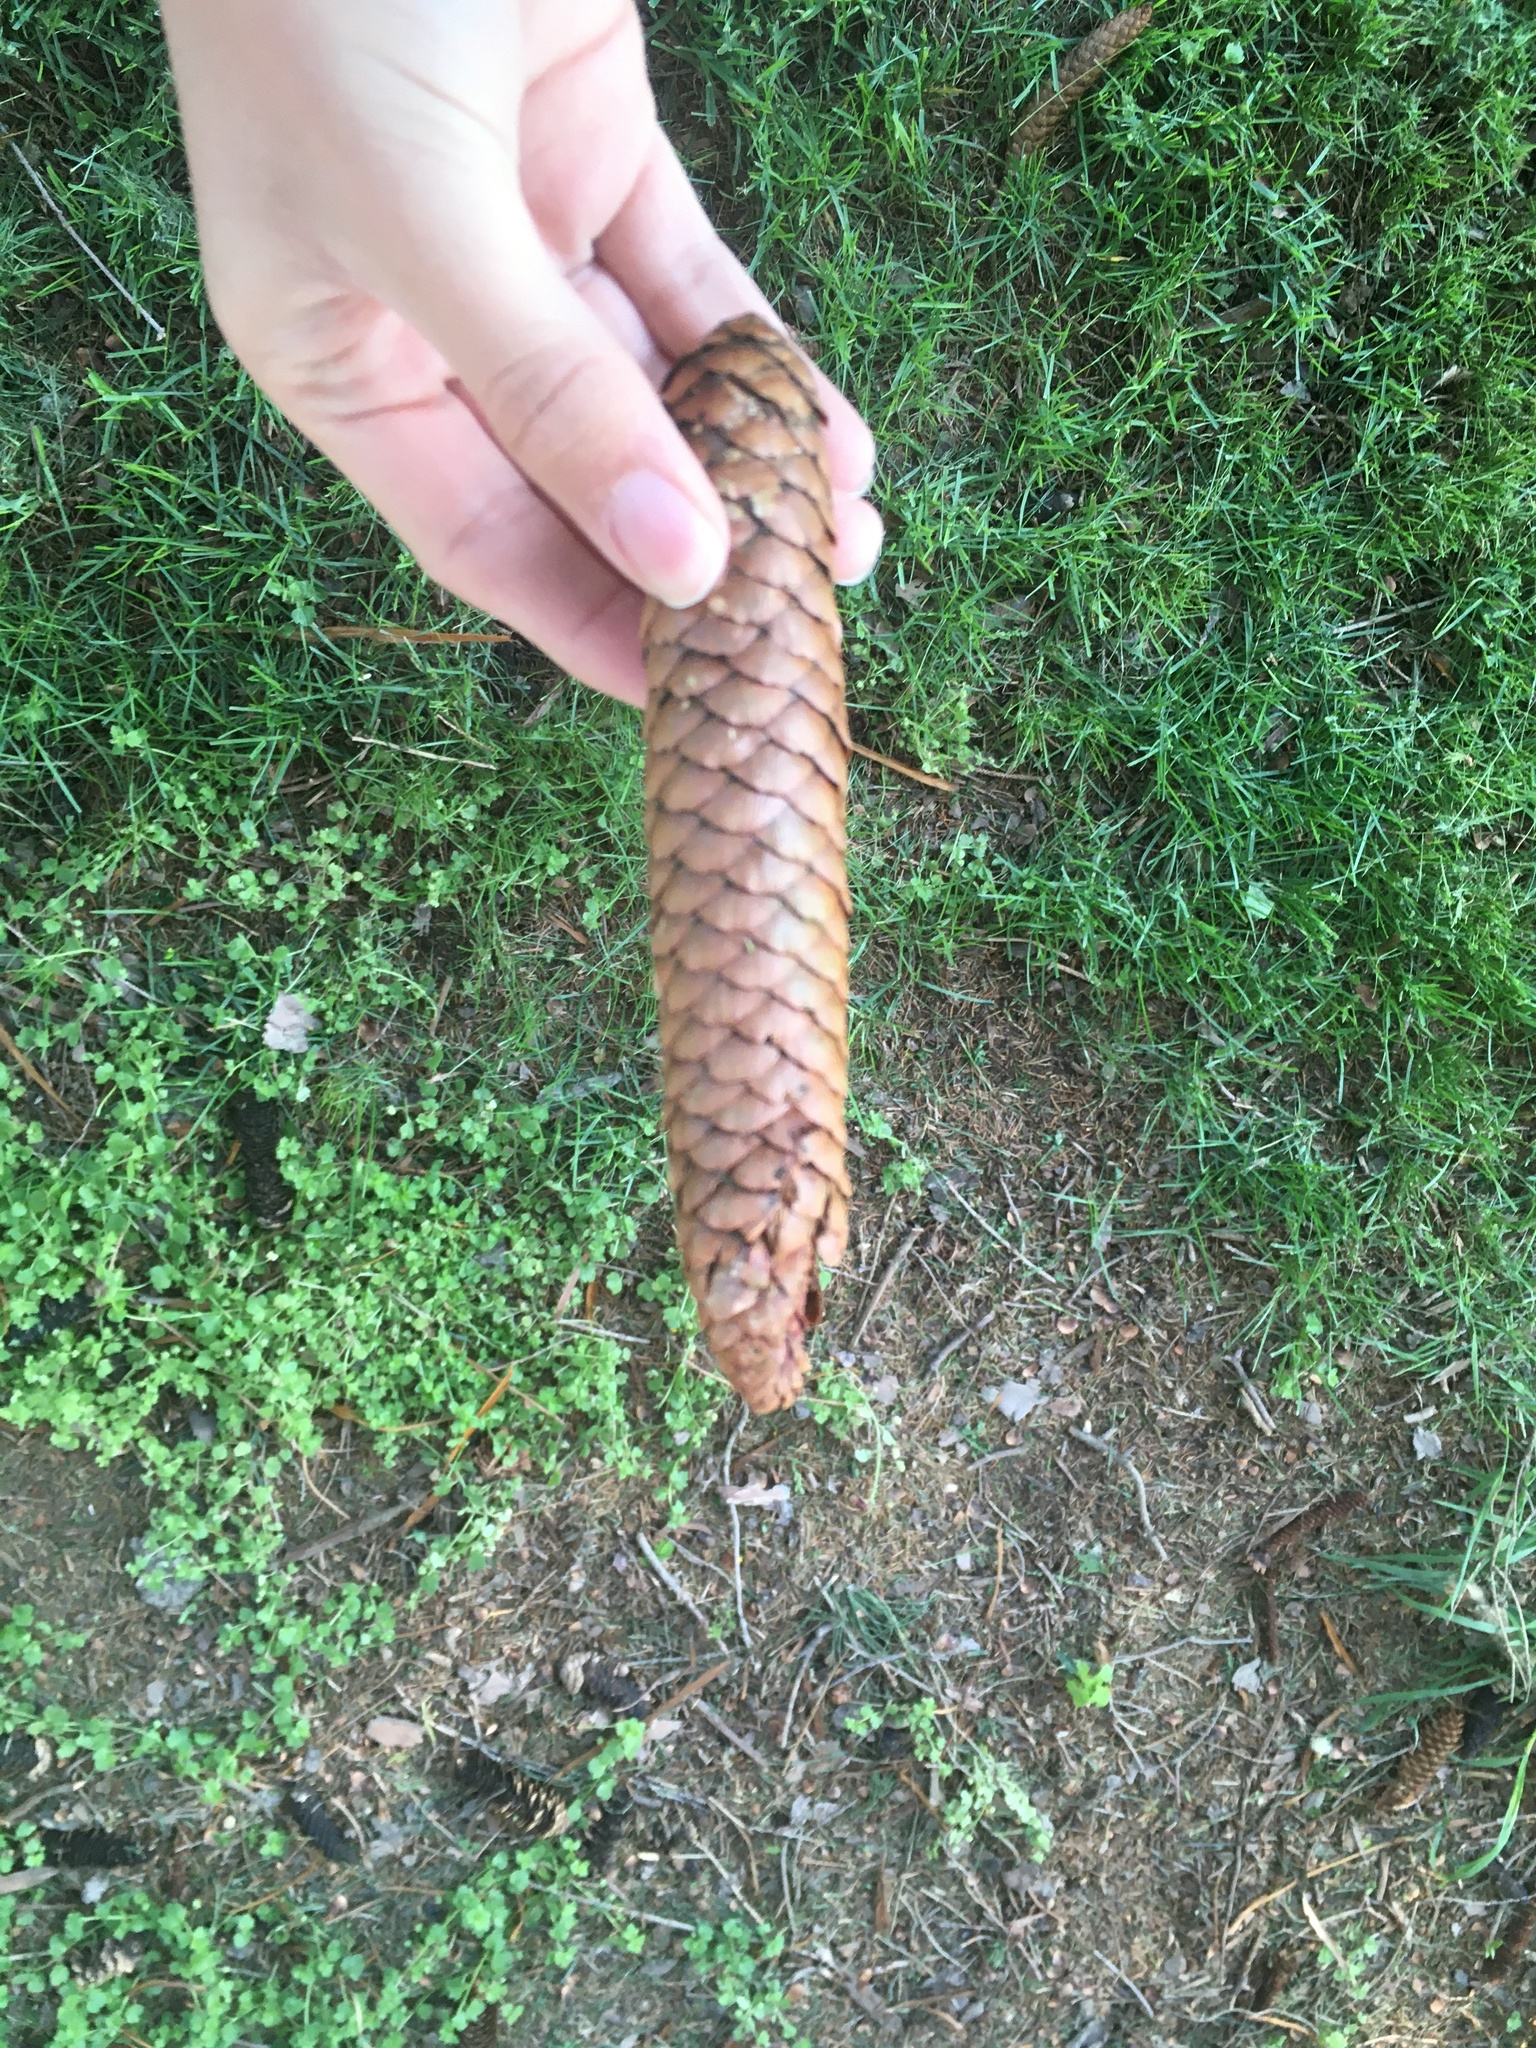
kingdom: Plantae
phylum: Tracheophyta
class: Pinopsida
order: Pinales
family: Pinaceae
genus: Picea
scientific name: Picea abies
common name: Norway spruce
